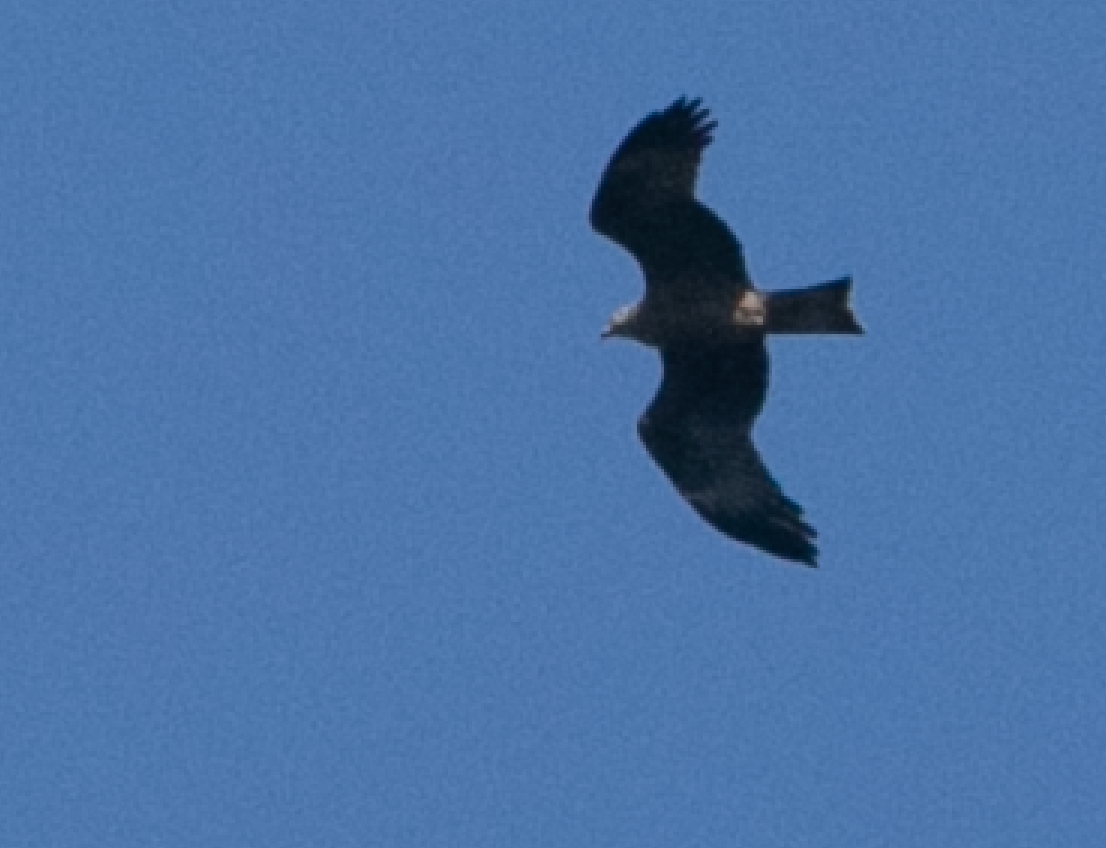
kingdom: Animalia
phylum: Chordata
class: Aves
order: Accipitriformes
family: Accipitridae
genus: Milvus
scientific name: Milvus migrans
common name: Black kite
